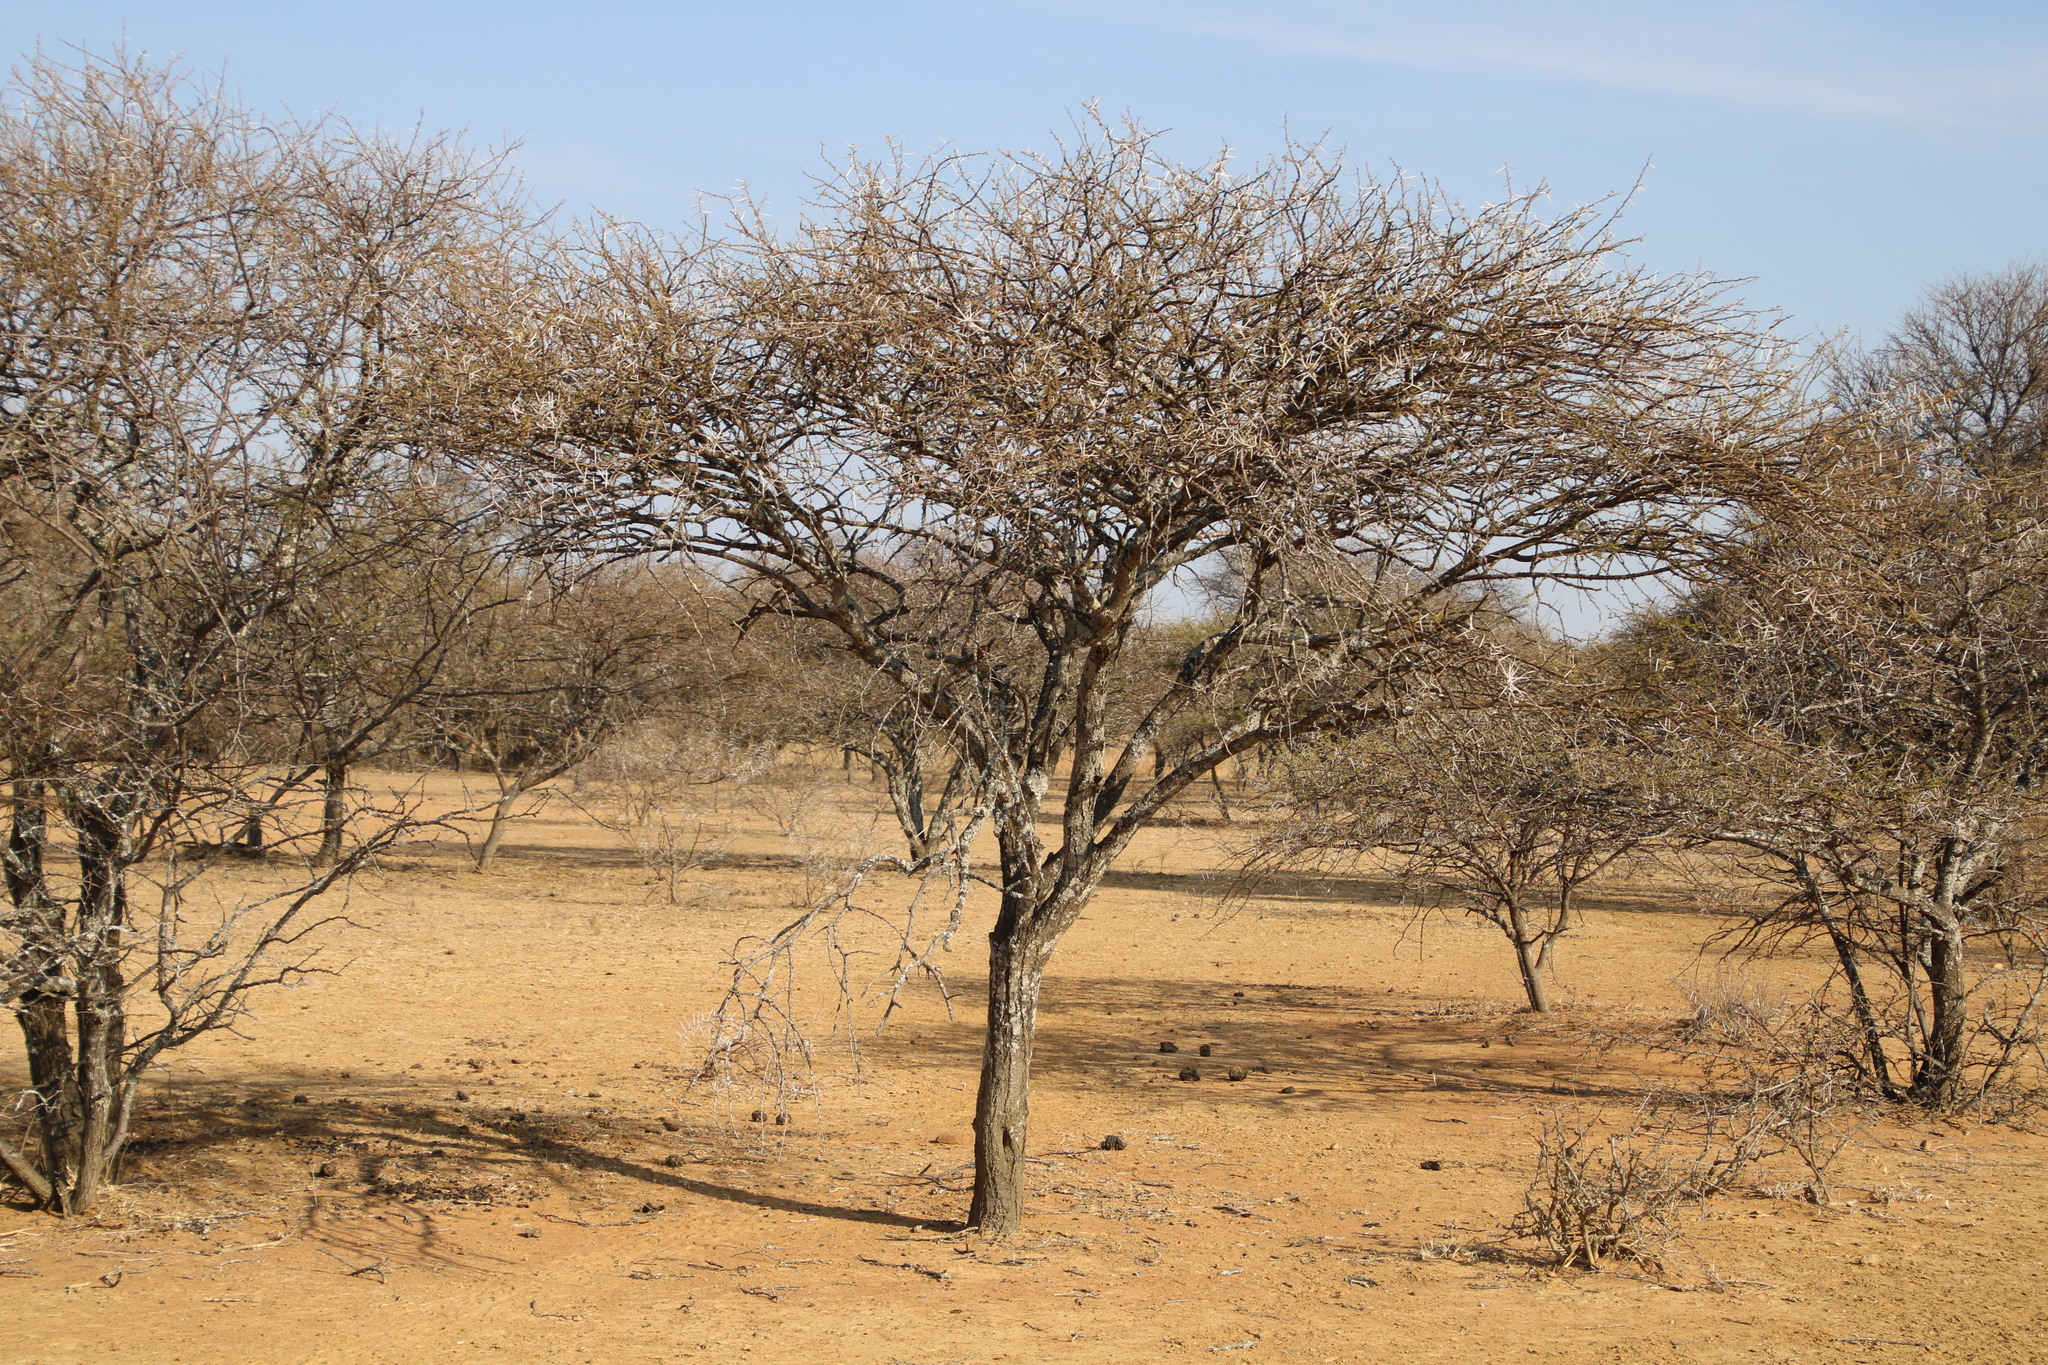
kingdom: Plantae
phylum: Tracheophyta
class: Magnoliopsida
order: Fabales
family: Fabaceae
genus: Vachellia
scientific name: Vachellia tortilis
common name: Umbrella thorn acacia
